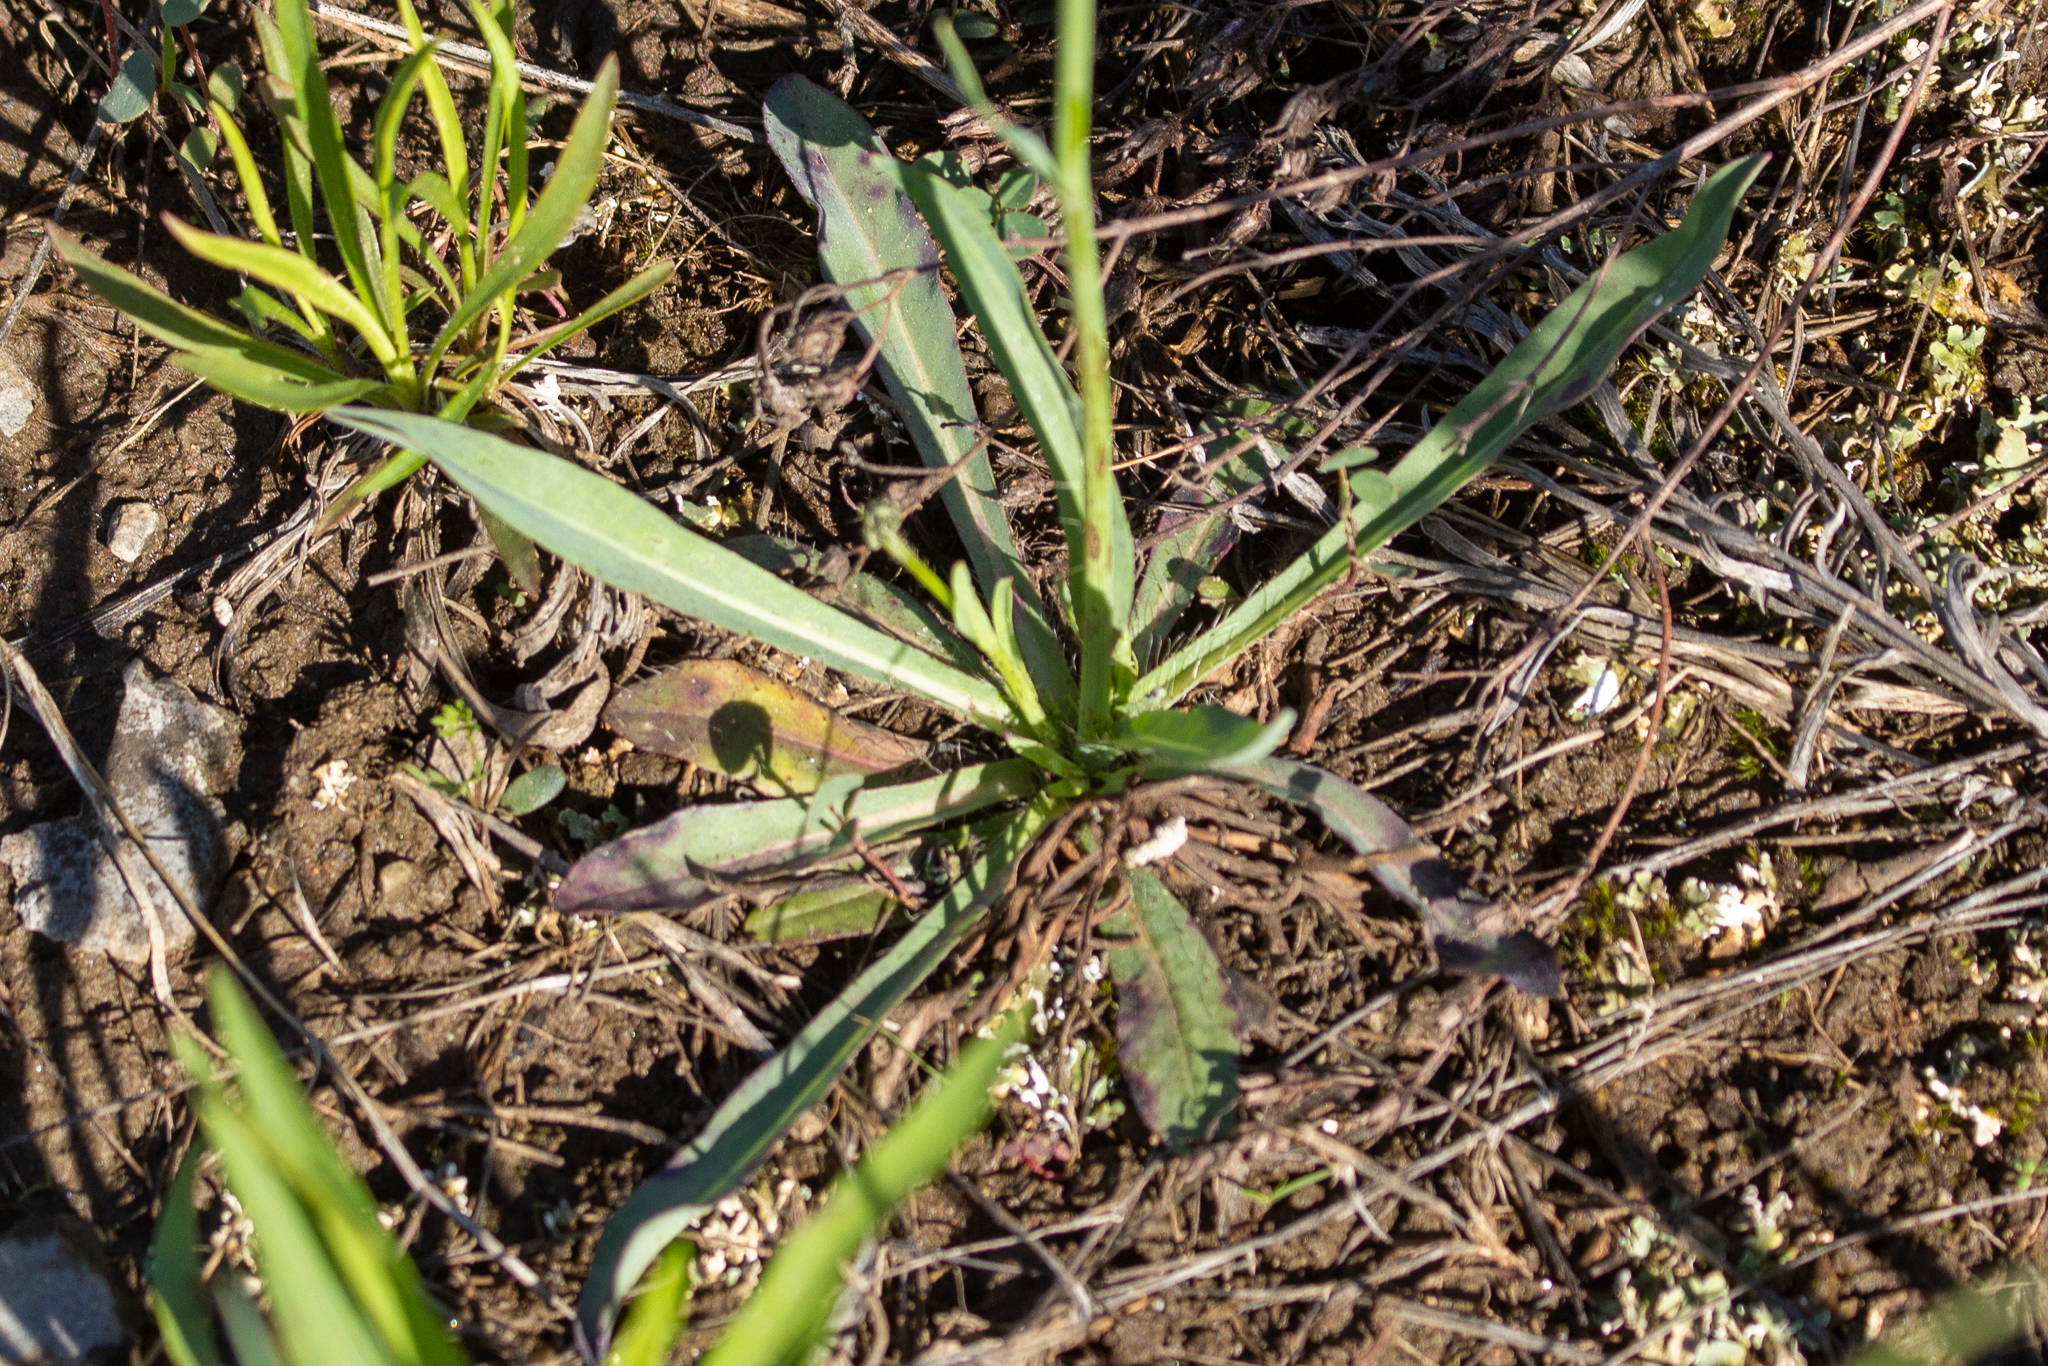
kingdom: Plantae
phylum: Tracheophyta
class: Magnoliopsida
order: Asterales
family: Asteraceae
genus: Pilosella
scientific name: Pilosella caespitosa
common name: Yellow fox-and-cubs
